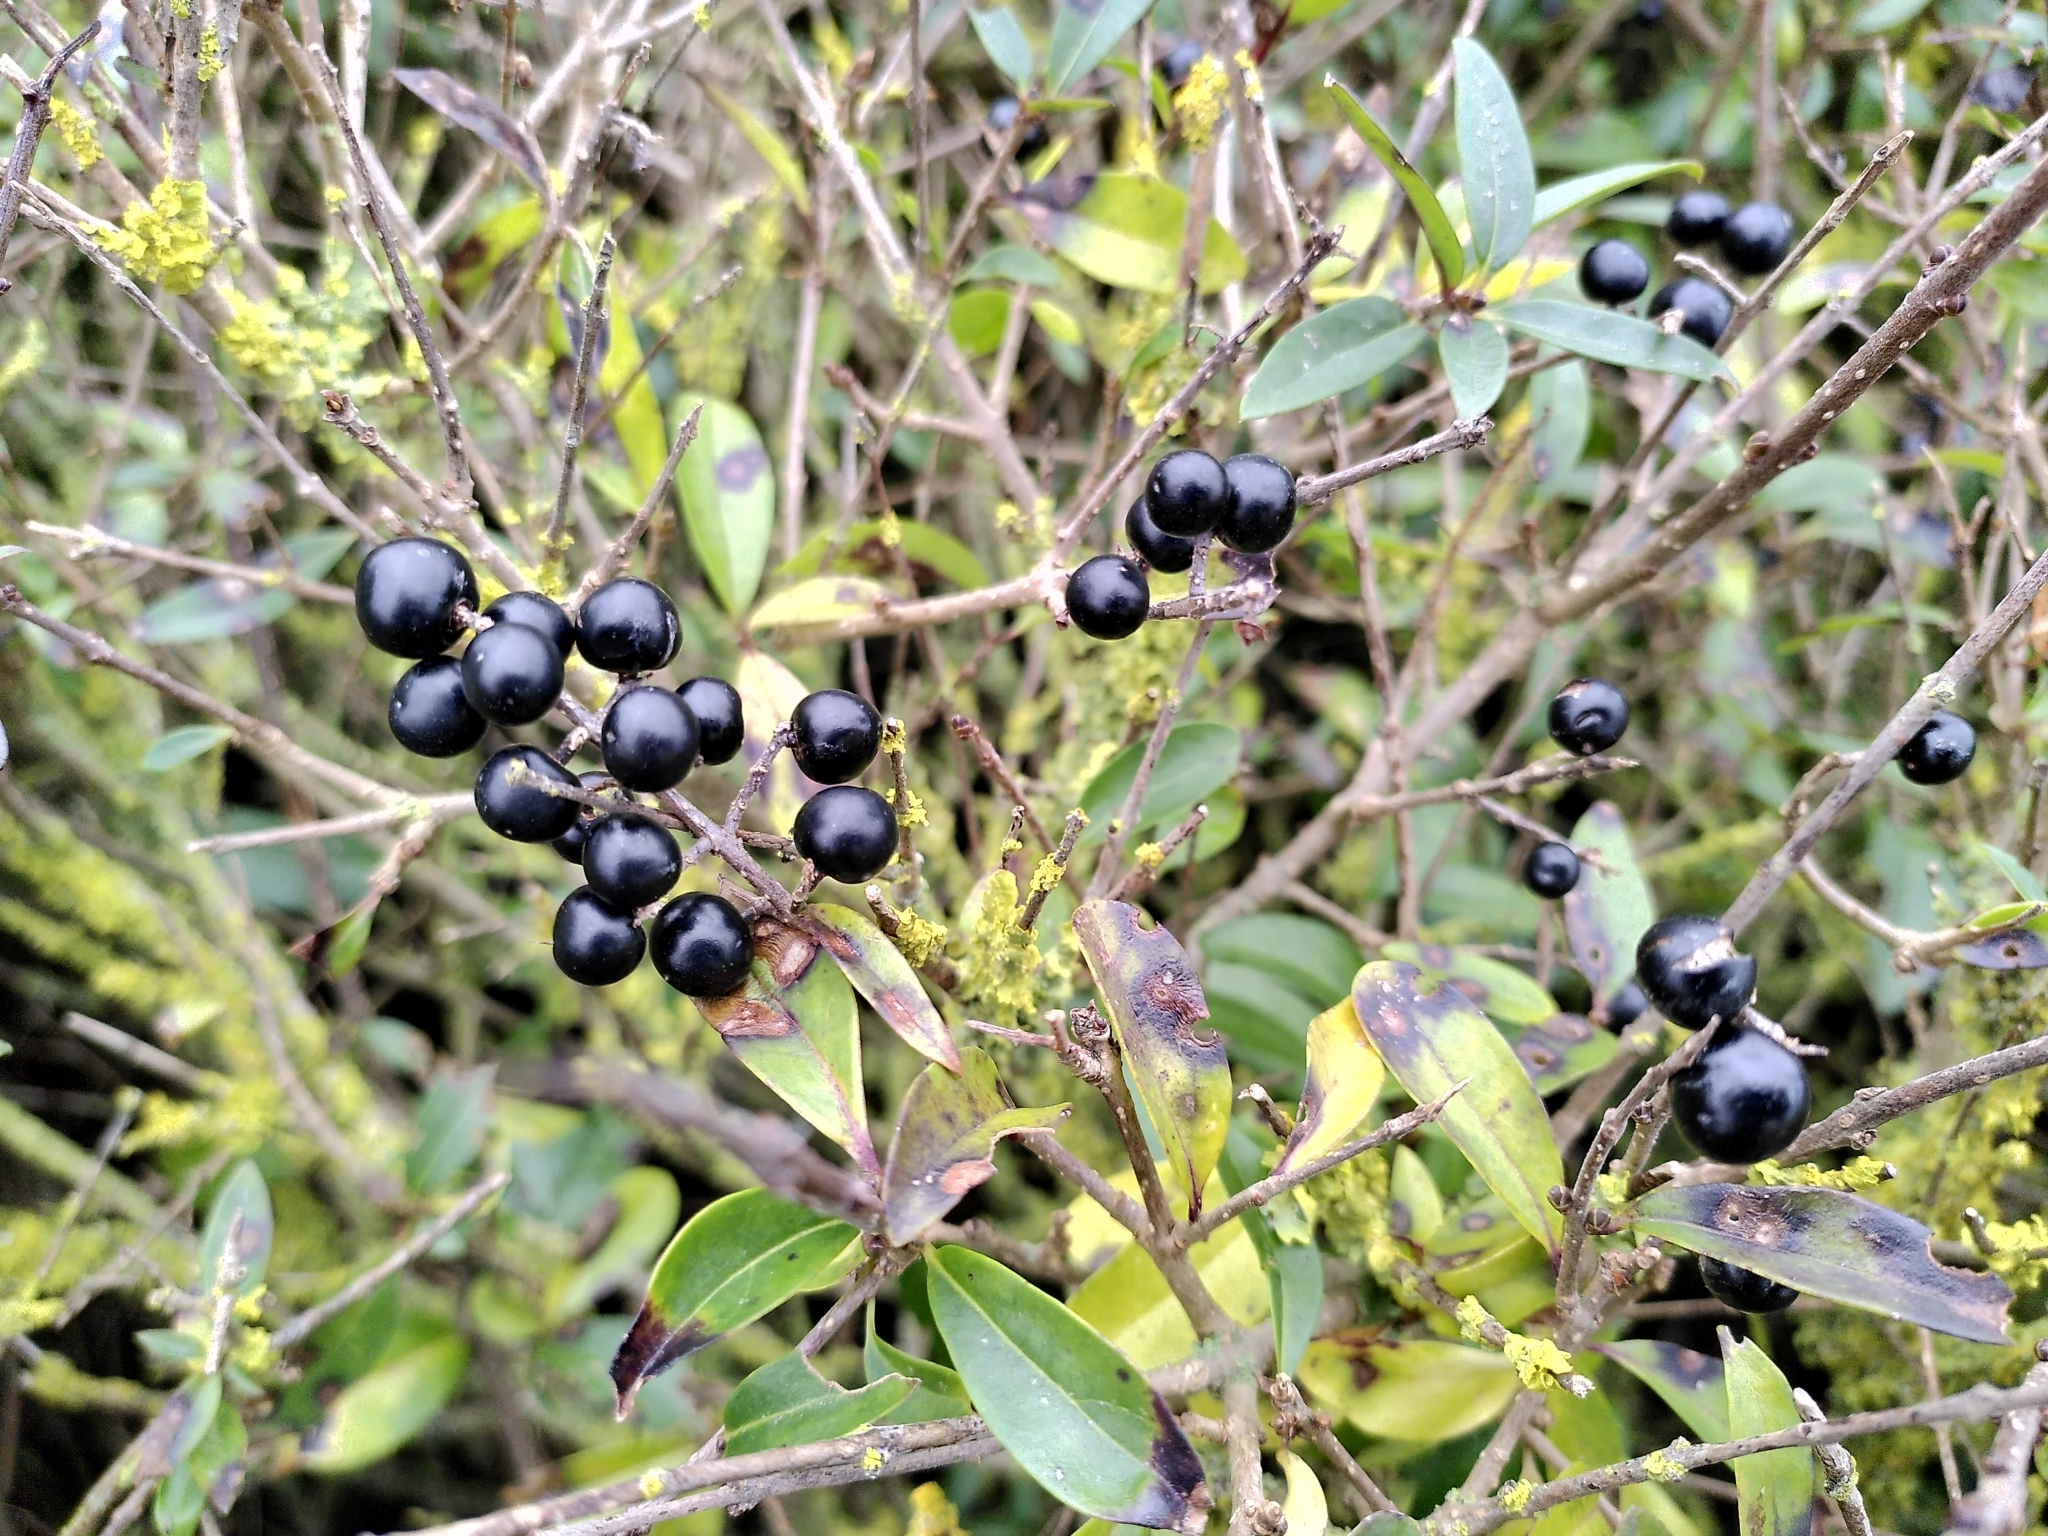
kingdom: Plantae
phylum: Tracheophyta
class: Magnoliopsida
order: Lamiales
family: Oleaceae
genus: Ligustrum
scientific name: Ligustrum vulgare
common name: Wild privet
